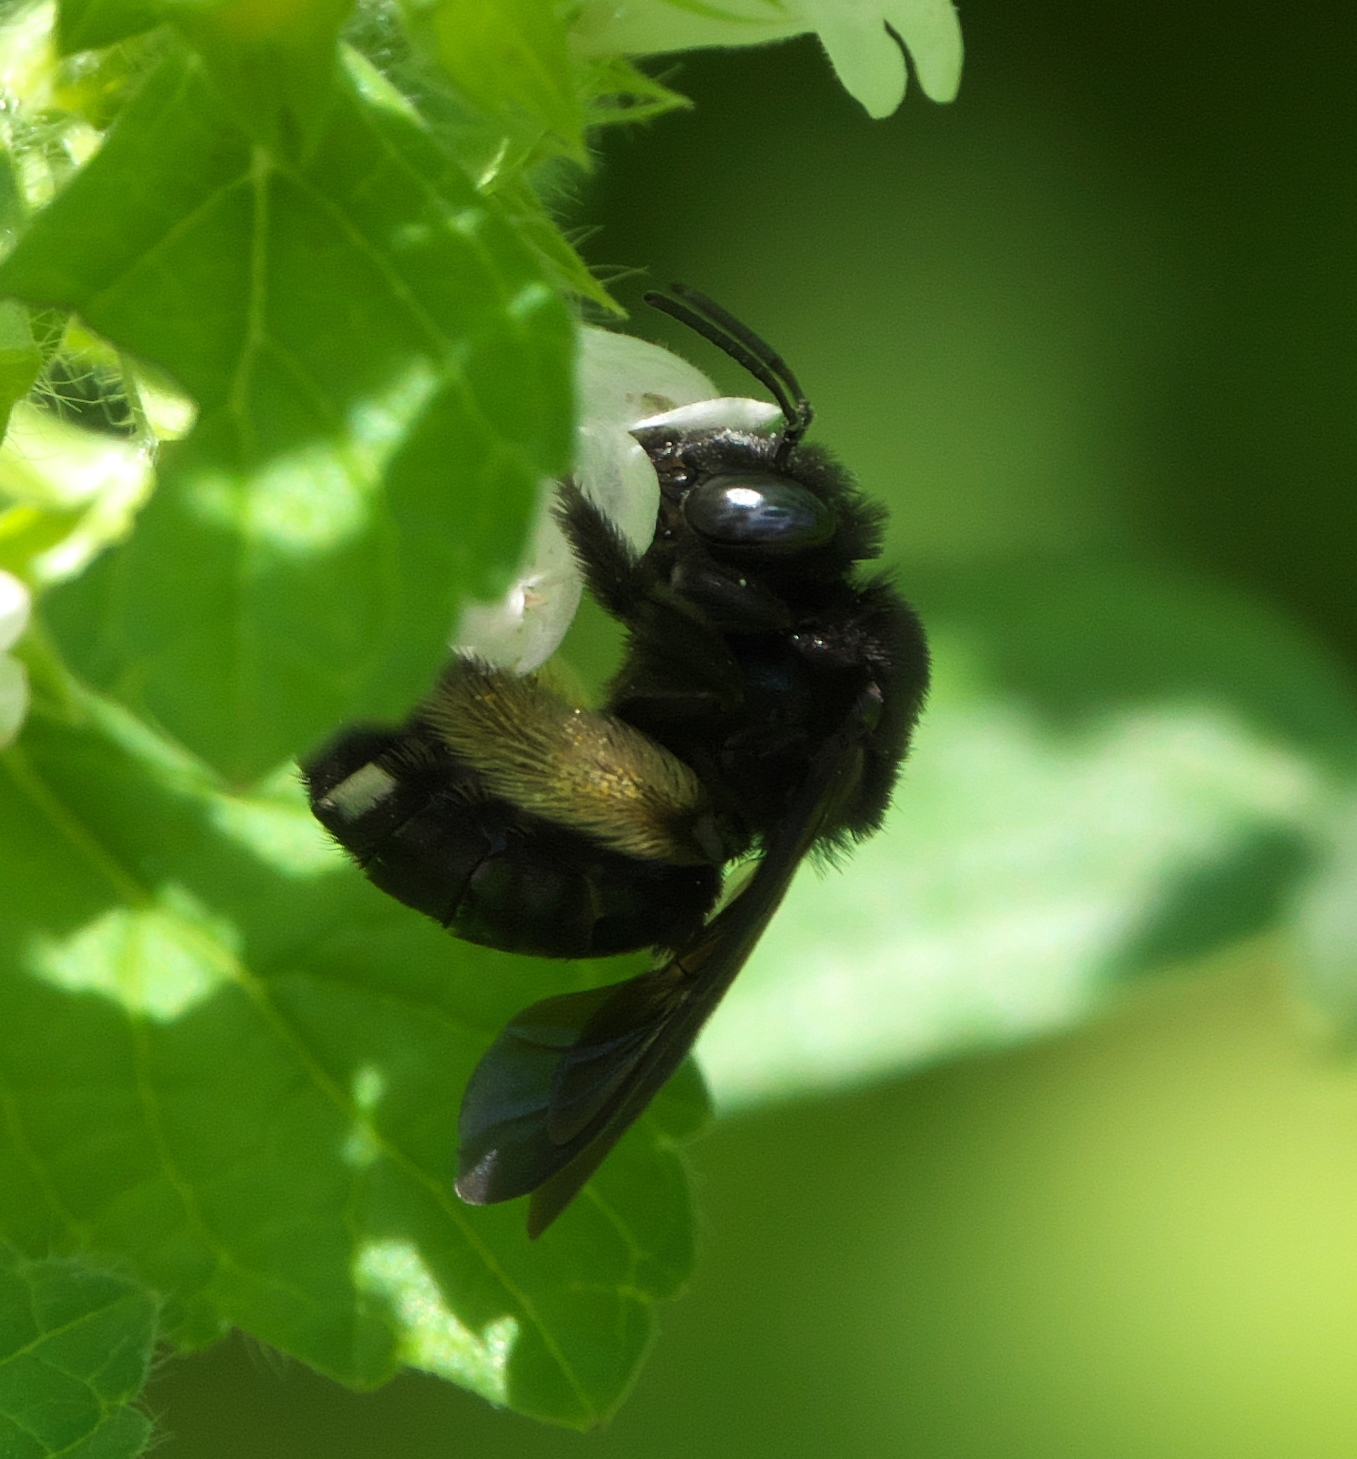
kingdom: Animalia
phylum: Arthropoda
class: Insecta
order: Hymenoptera
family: Apidae
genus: Melissodes
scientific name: Melissodes bimaculatus
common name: Two-spotted long-horned bee
